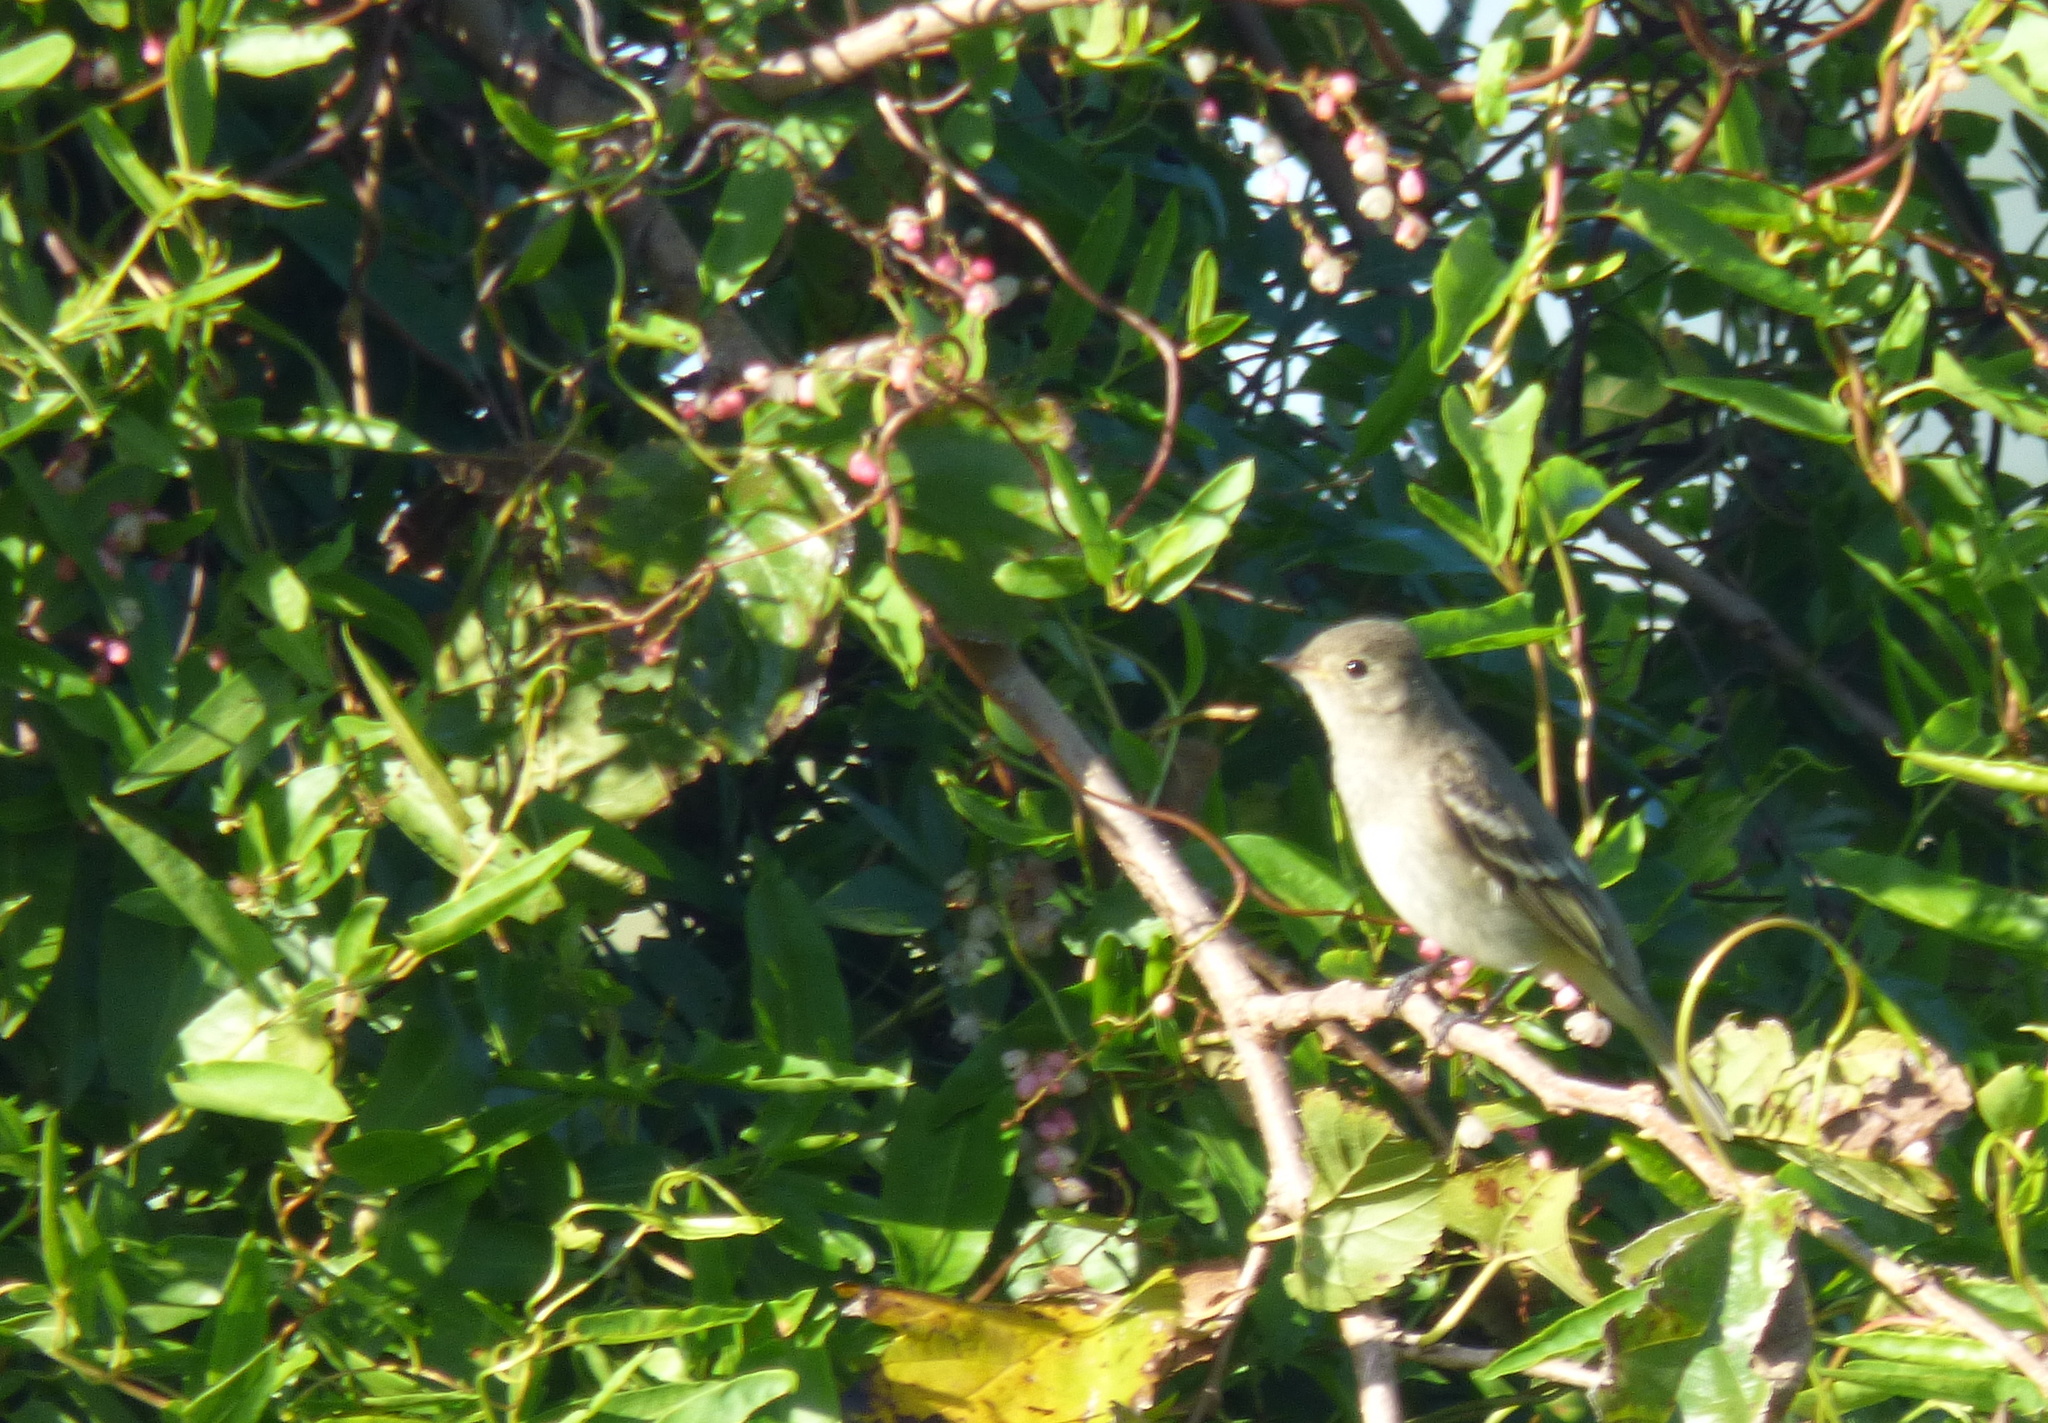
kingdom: Animalia
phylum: Chordata
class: Aves
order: Passeriformes
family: Tyrannidae
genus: Elaenia
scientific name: Elaenia albiceps
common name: White-crested elaenia
